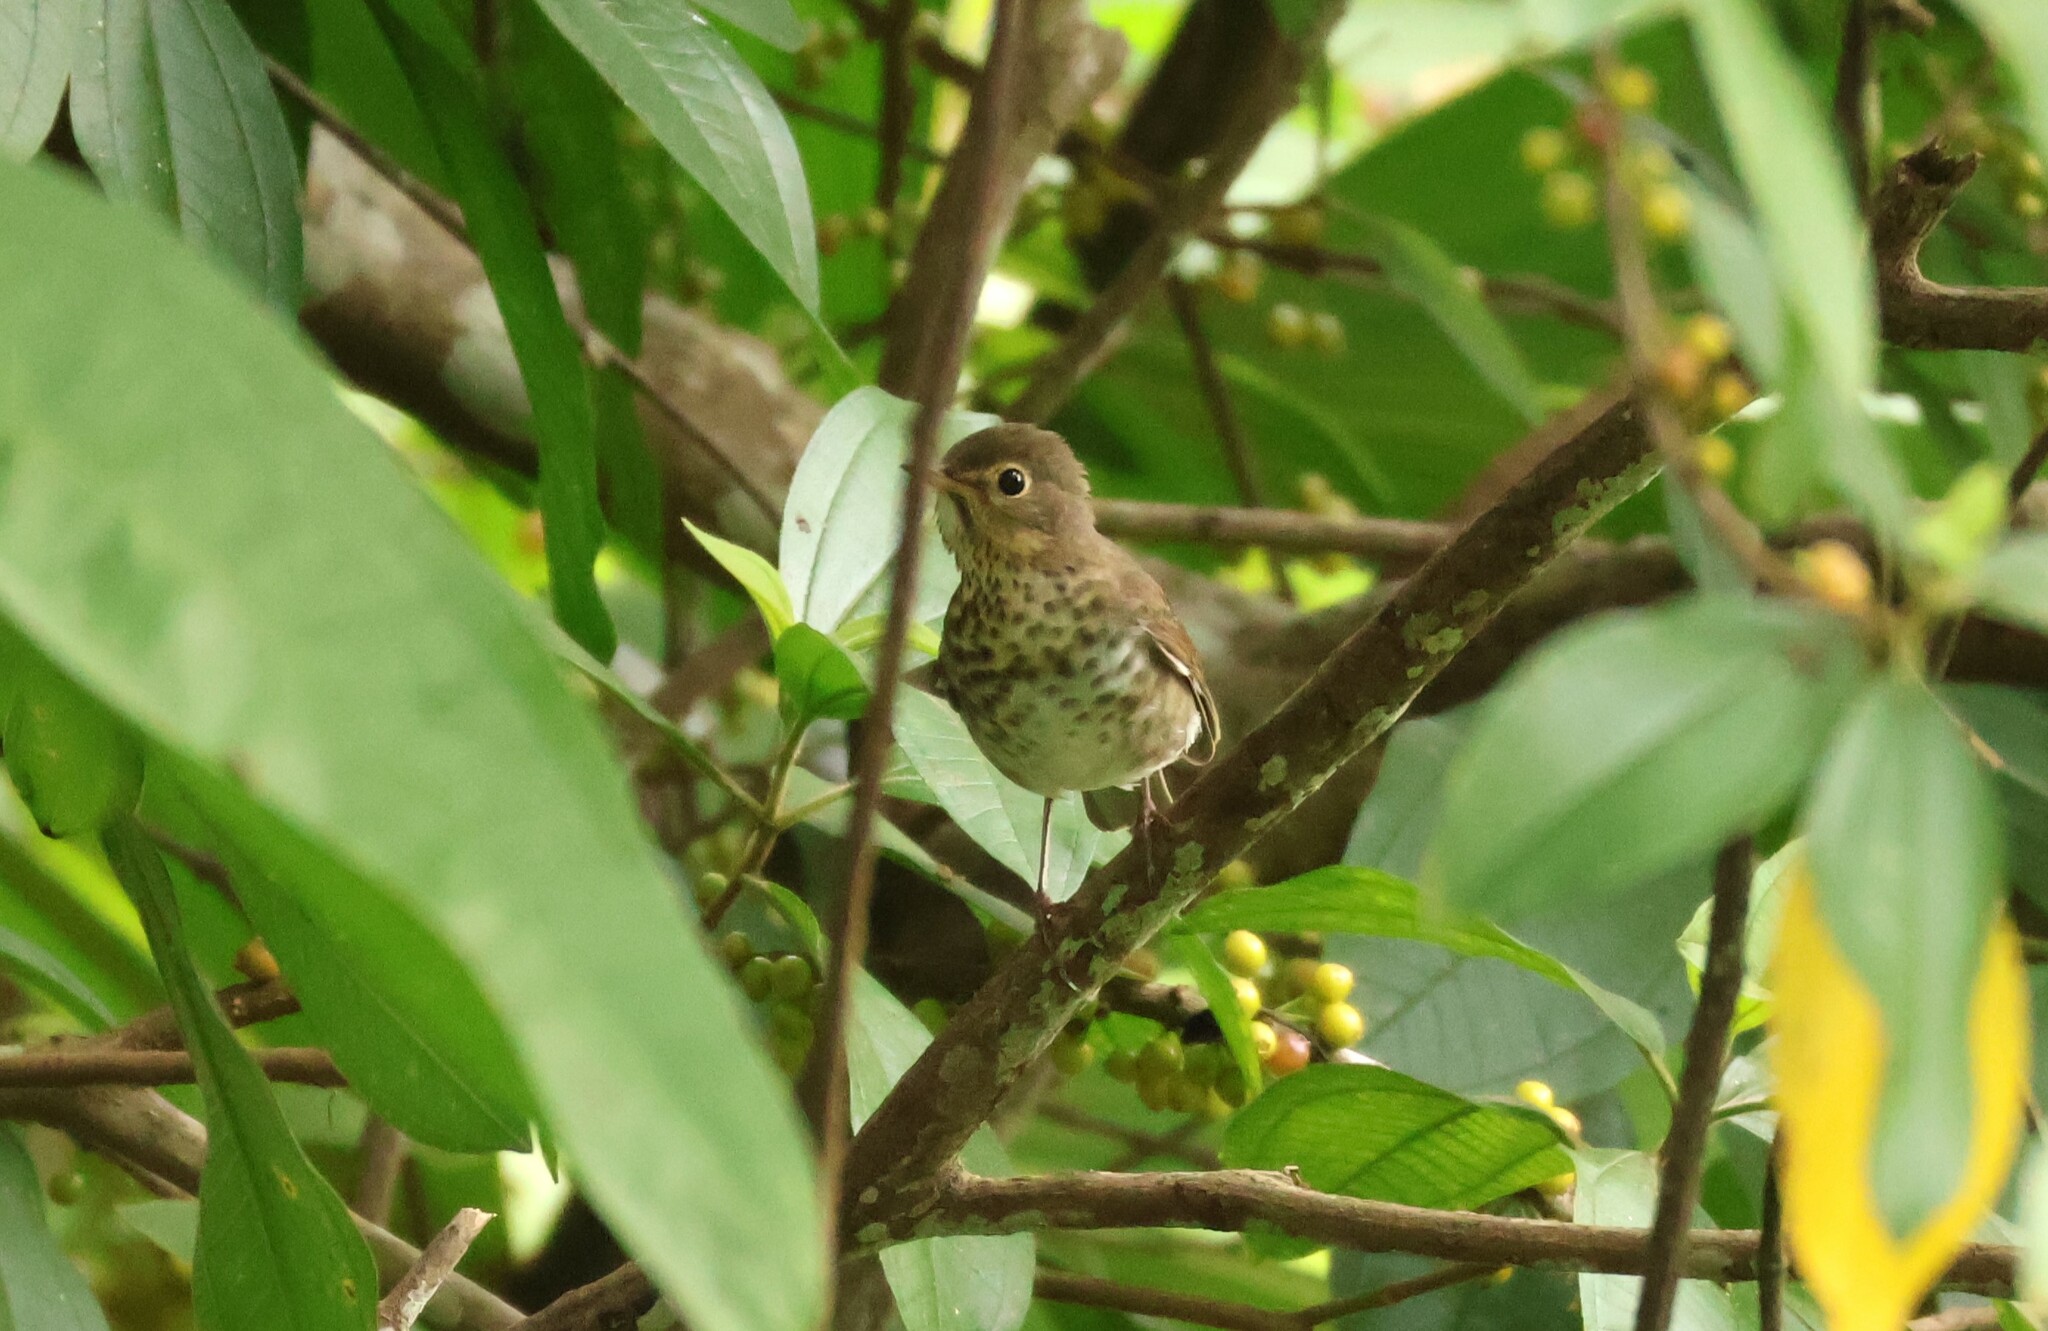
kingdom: Animalia
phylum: Chordata
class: Aves
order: Passeriformes
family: Turdidae
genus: Catharus
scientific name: Catharus ustulatus
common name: Swainson's thrush
